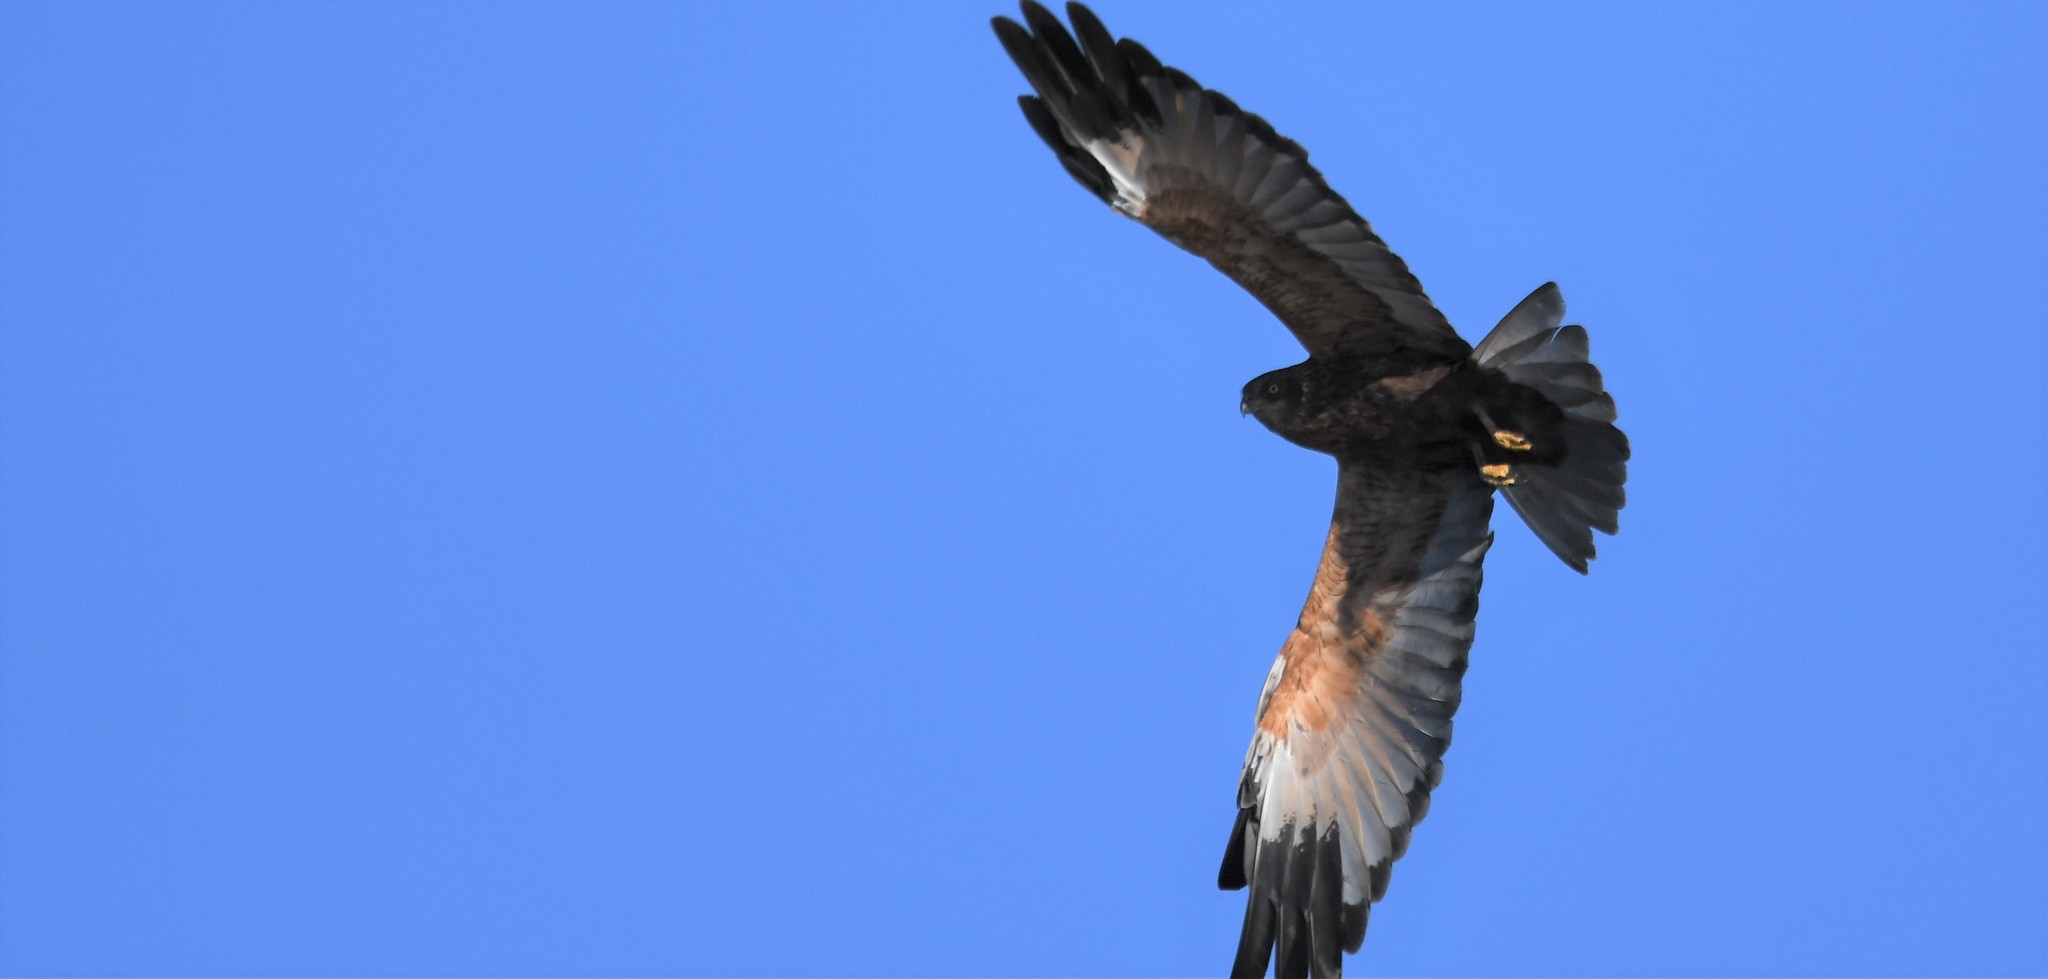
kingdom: Animalia
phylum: Chordata
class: Aves
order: Accipitriformes
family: Accipitridae
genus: Circus
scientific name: Circus aeruginosus
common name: Western marsh harrier
